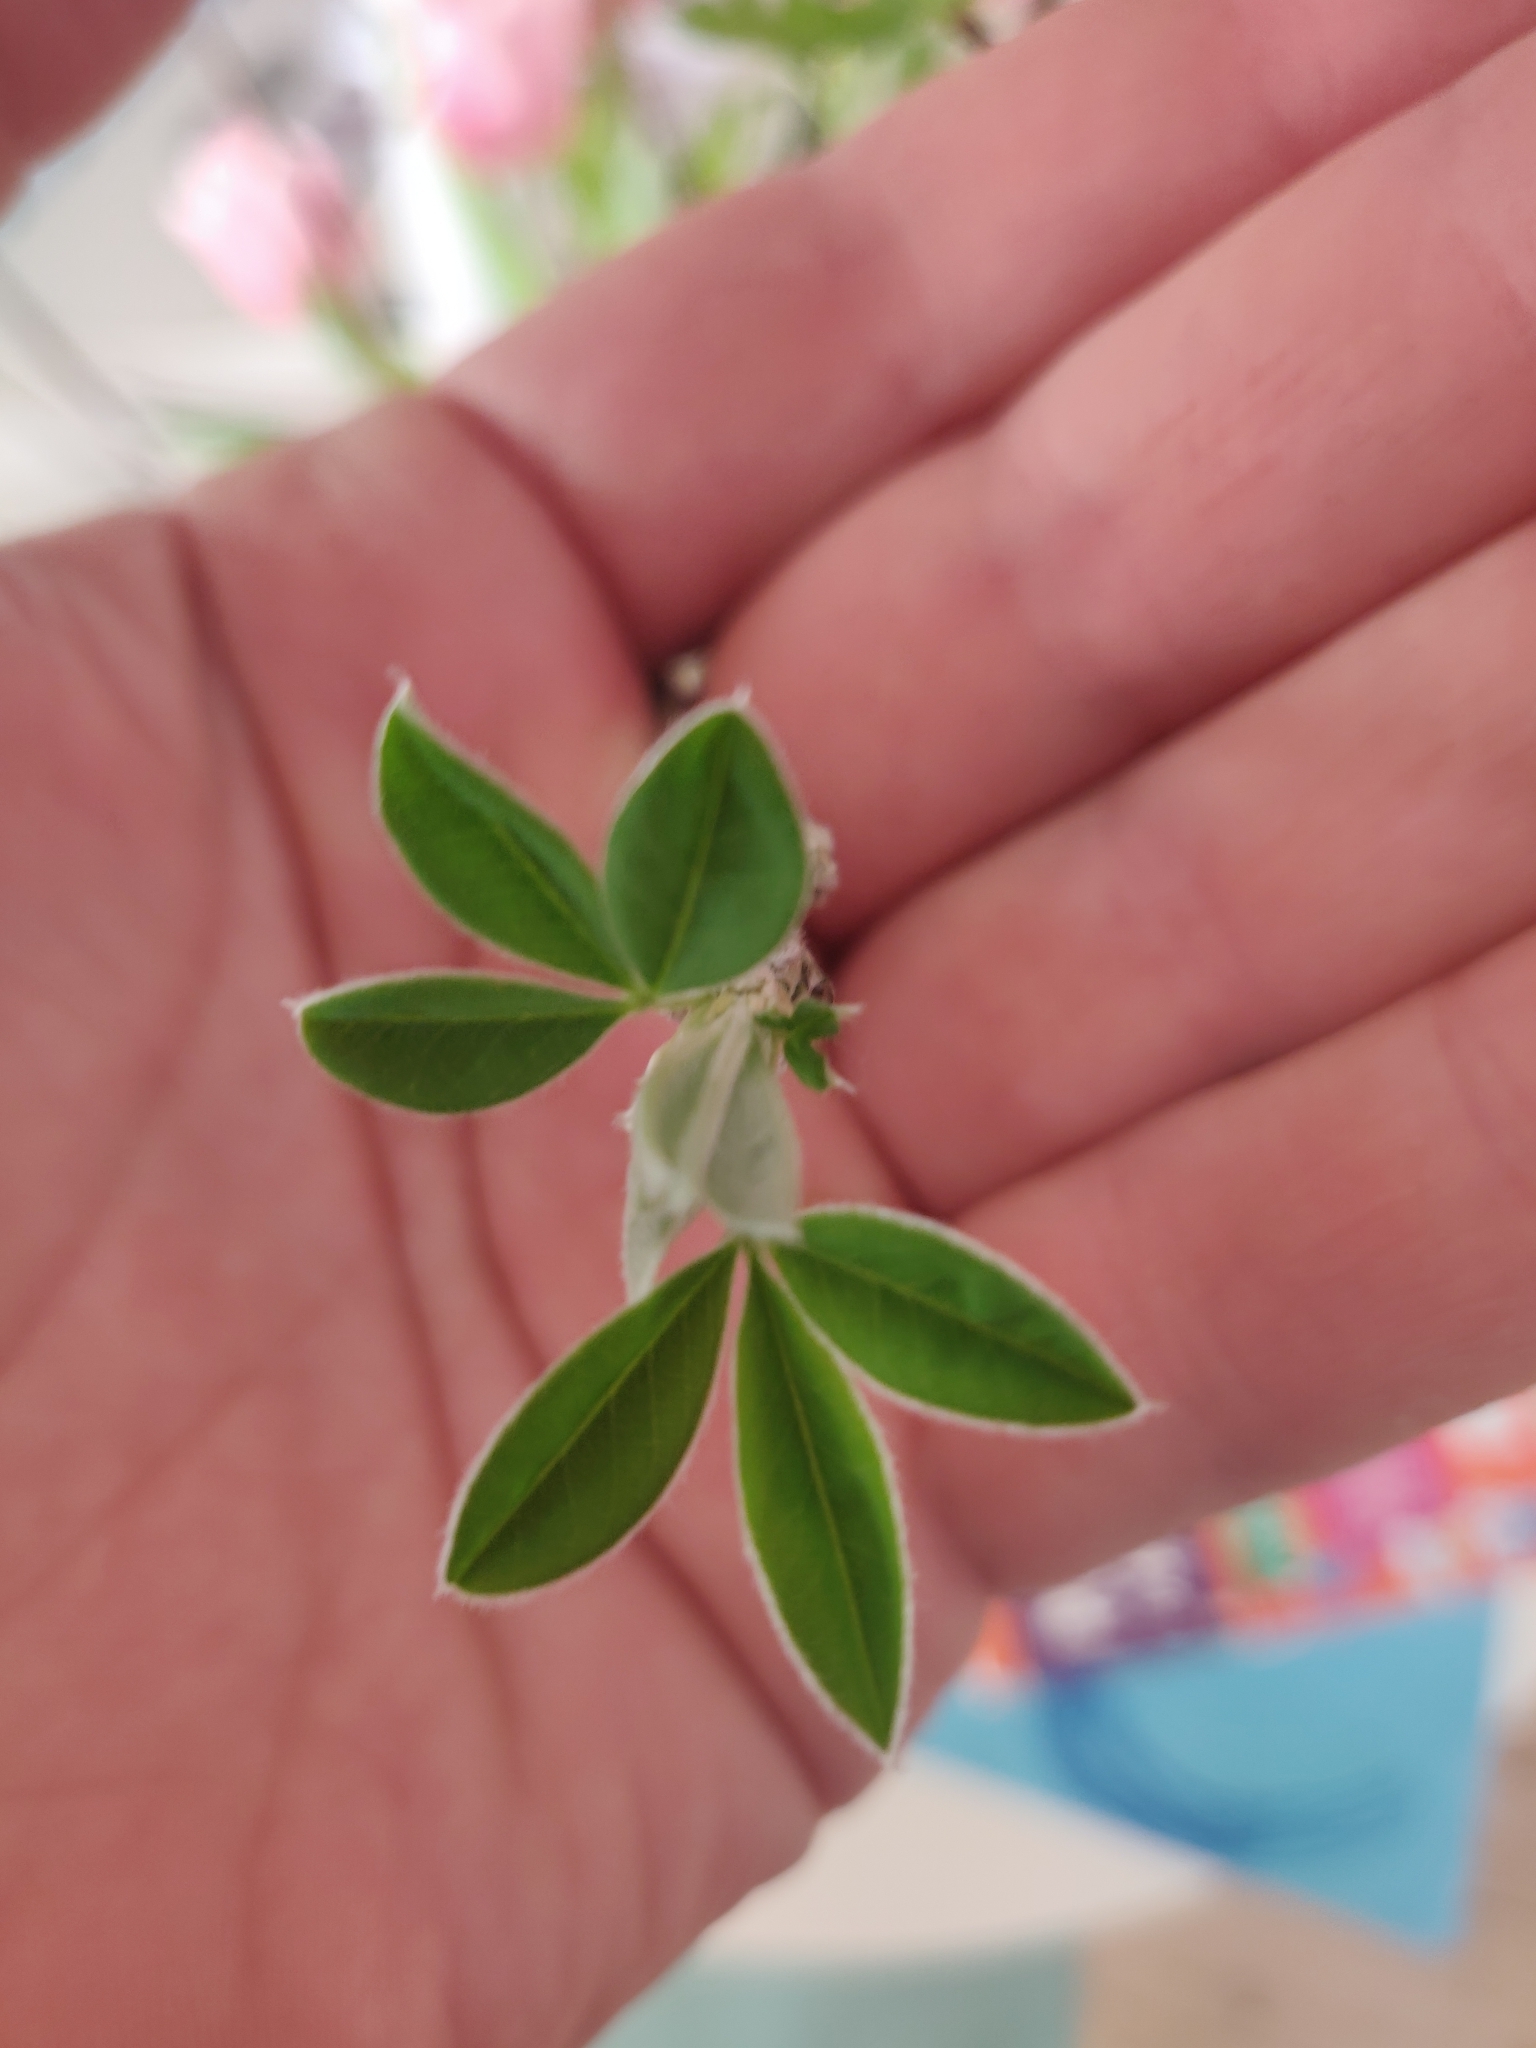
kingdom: Plantae
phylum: Tracheophyta
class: Magnoliopsida
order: Fabales
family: Fabaceae
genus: Laburnum
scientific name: Laburnum anagyroides
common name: Laburnum
